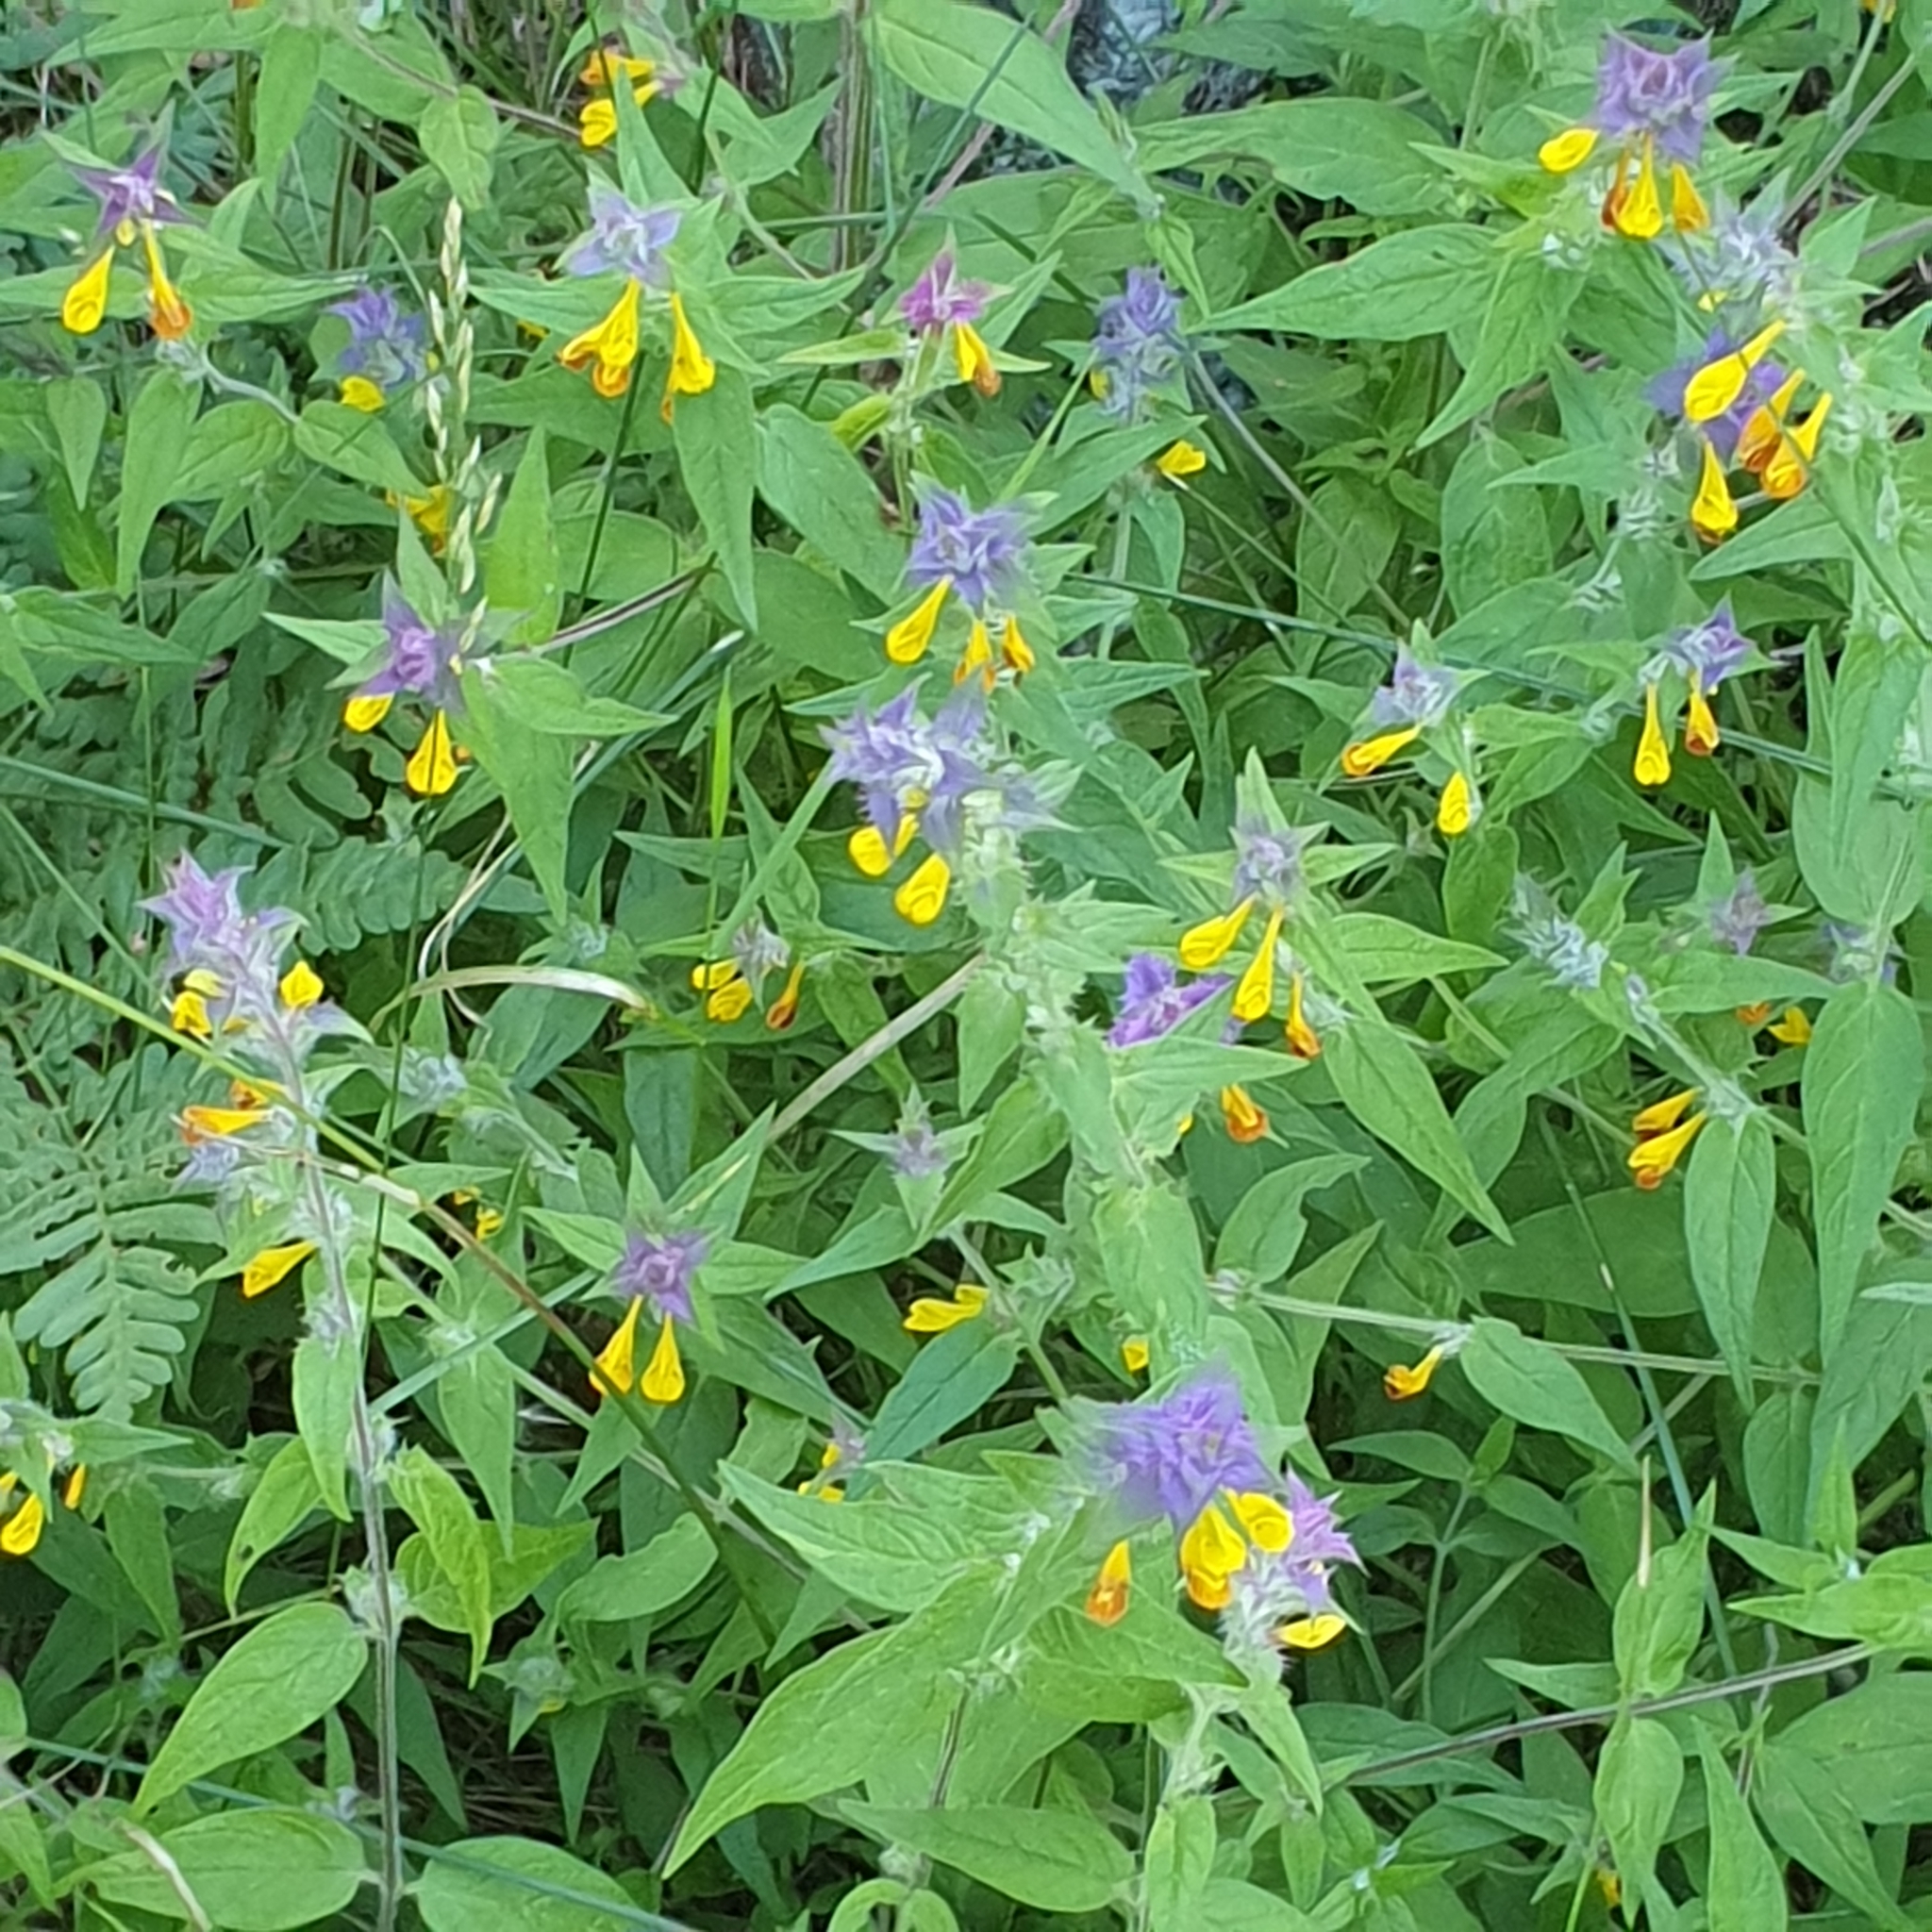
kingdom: Plantae
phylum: Tracheophyta
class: Magnoliopsida
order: Lamiales
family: Orobanchaceae
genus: Melampyrum
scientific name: Melampyrum nemorosum
